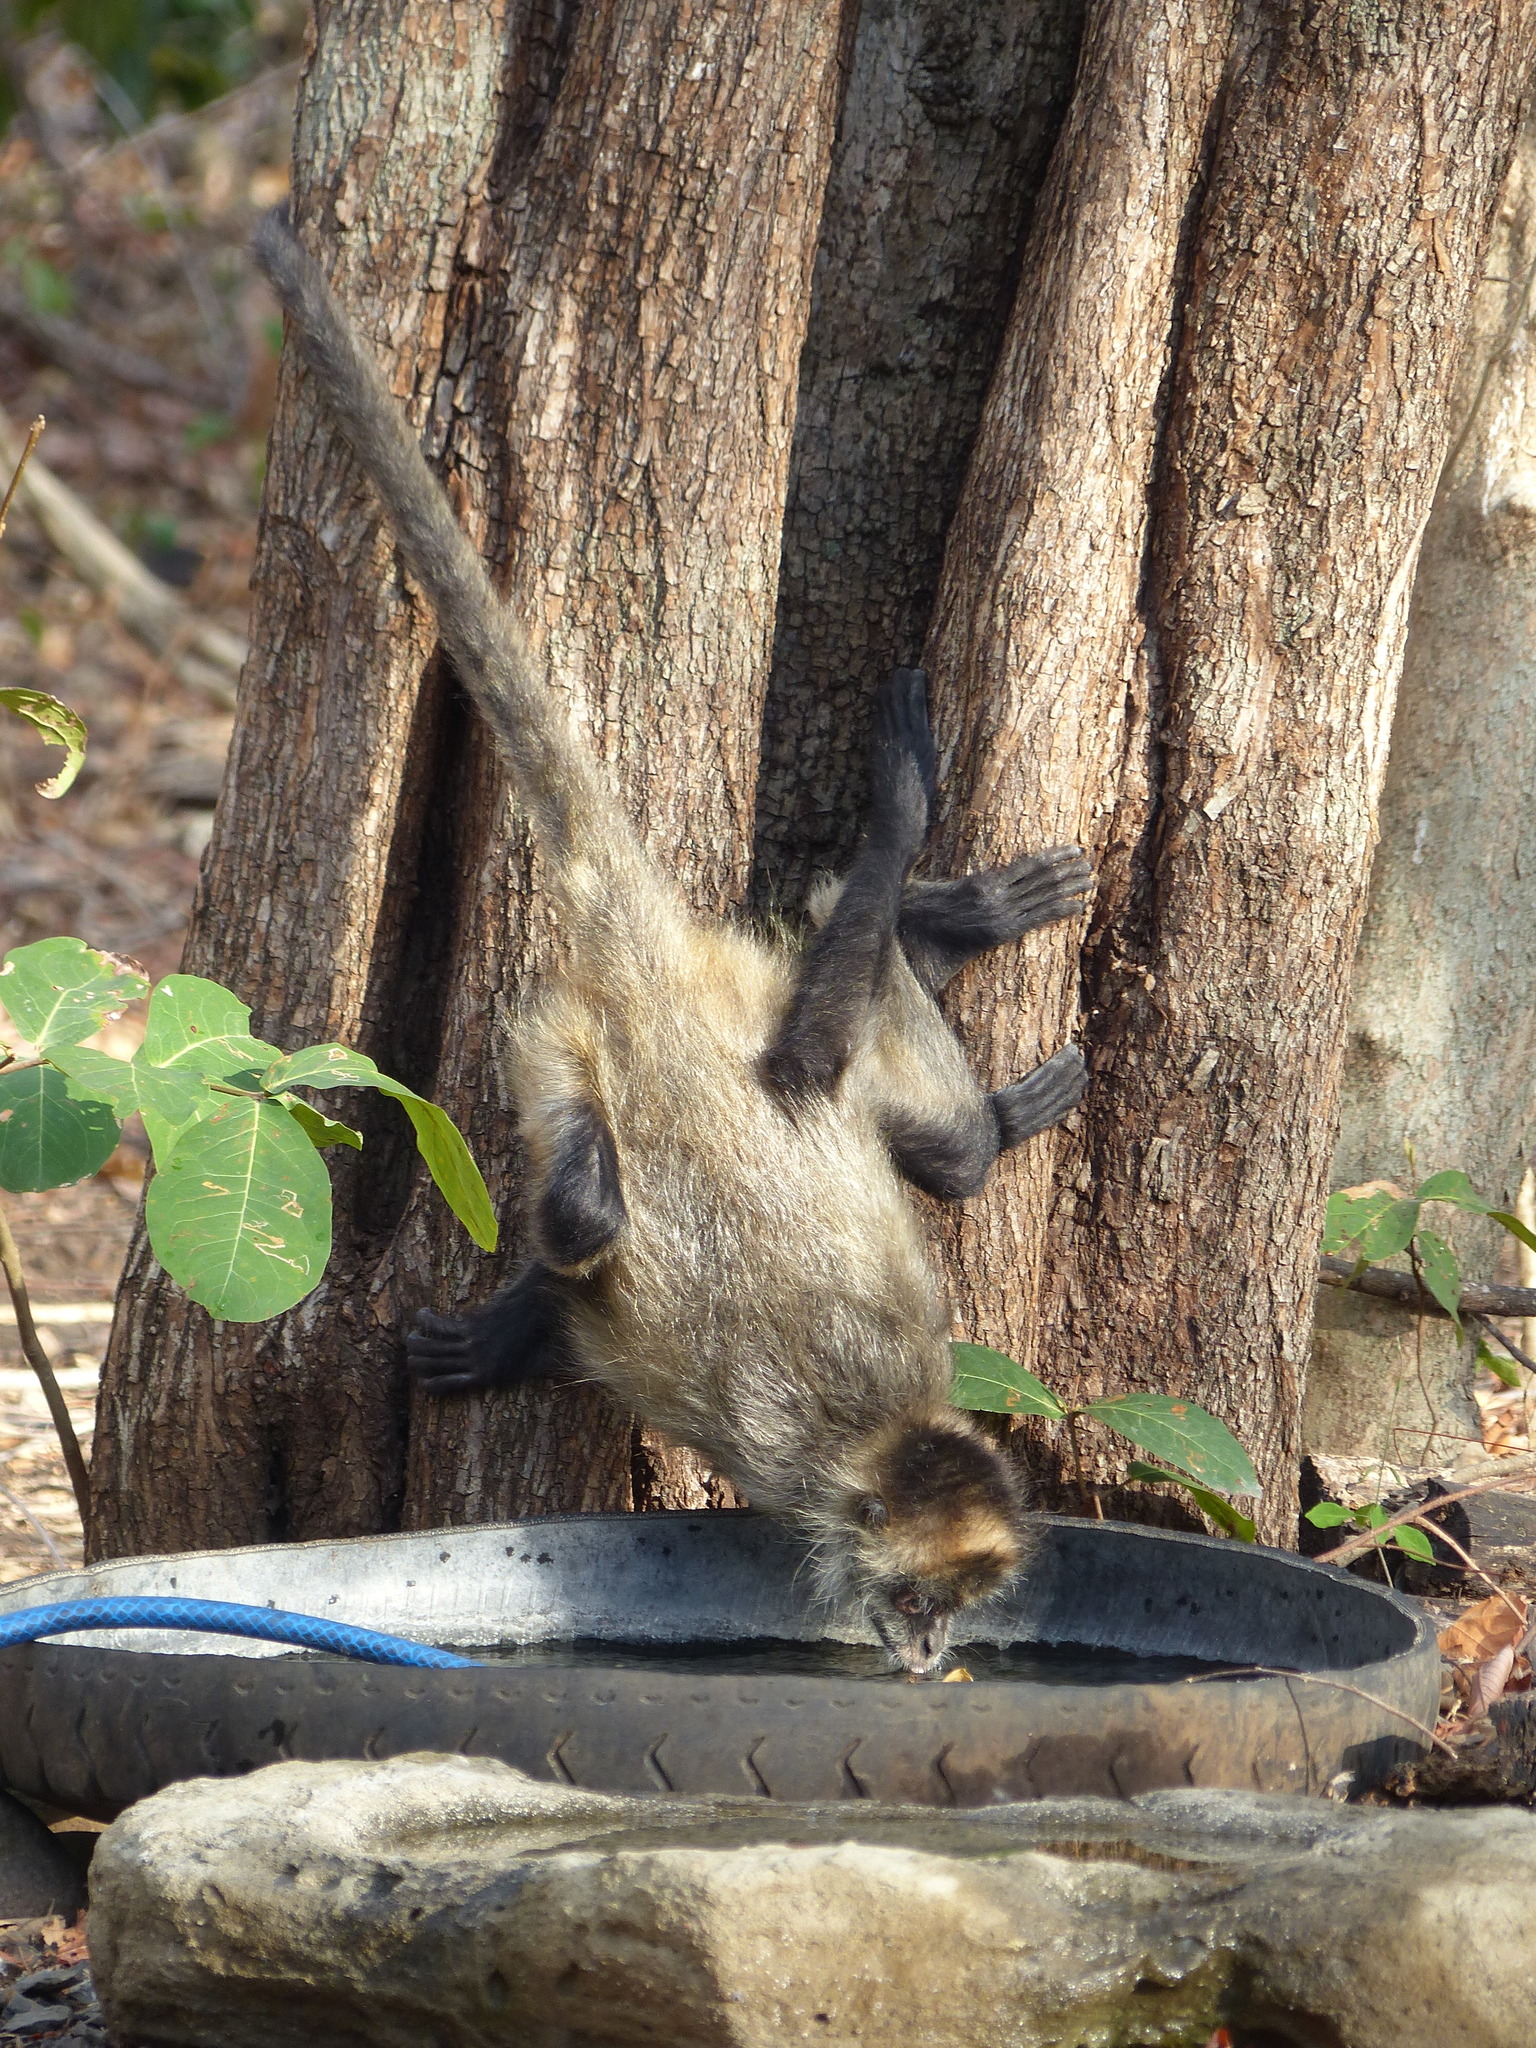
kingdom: Animalia
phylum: Chordata
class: Mammalia
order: Primates
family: Atelidae
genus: Ateles
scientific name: Ateles geoffroyi
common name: Black-handed spider monkey
